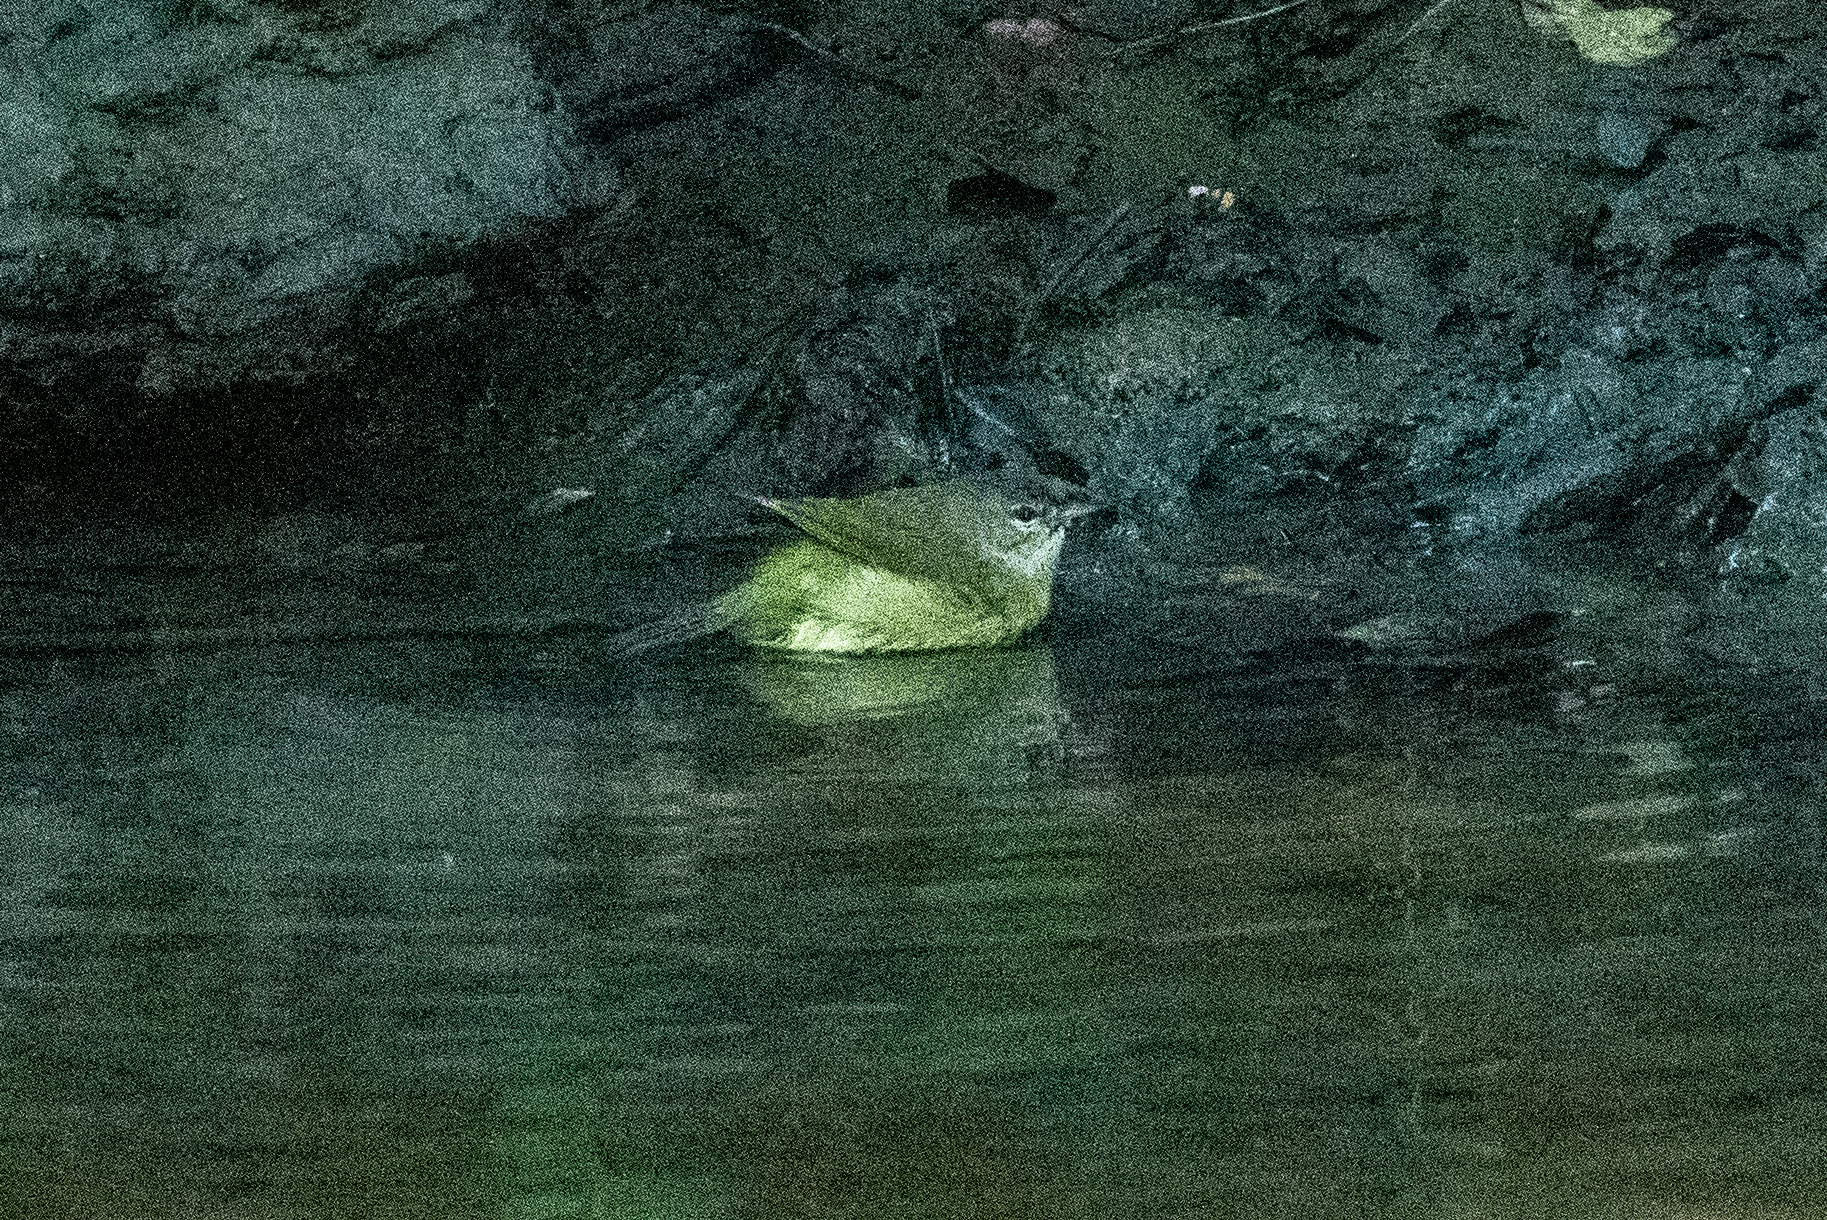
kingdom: Animalia
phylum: Chordata
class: Aves
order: Passeriformes
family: Parulidae
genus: Leiothlypis
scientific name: Leiothlypis celata
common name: Orange-crowned warbler
